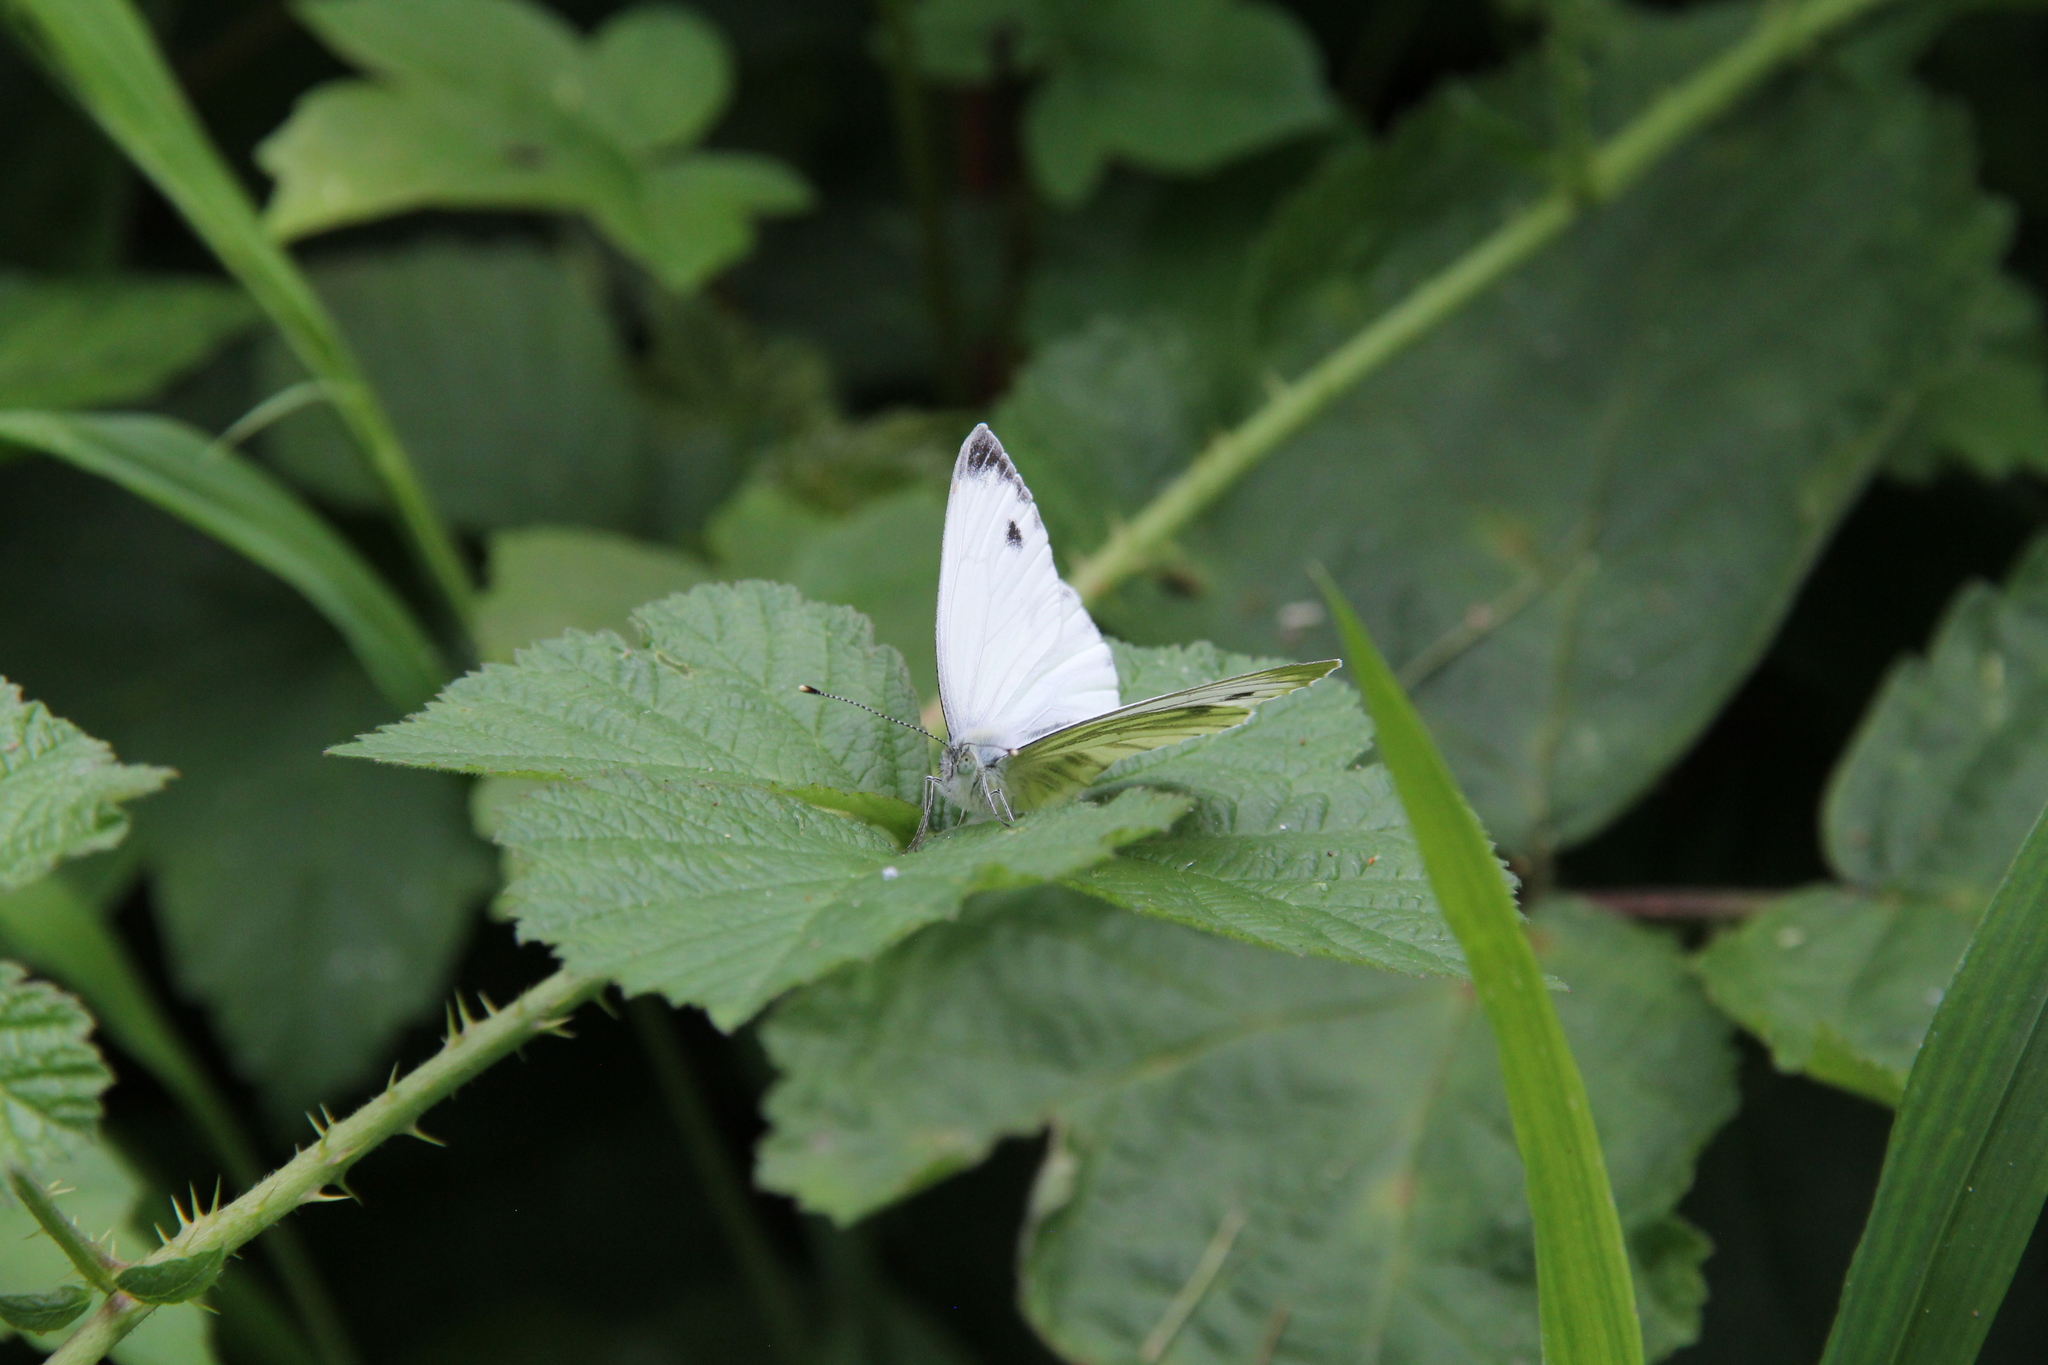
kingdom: Animalia
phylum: Arthropoda
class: Insecta
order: Lepidoptera
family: Pieridae
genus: Pieris
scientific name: Pieris napi
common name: Green-veined white
